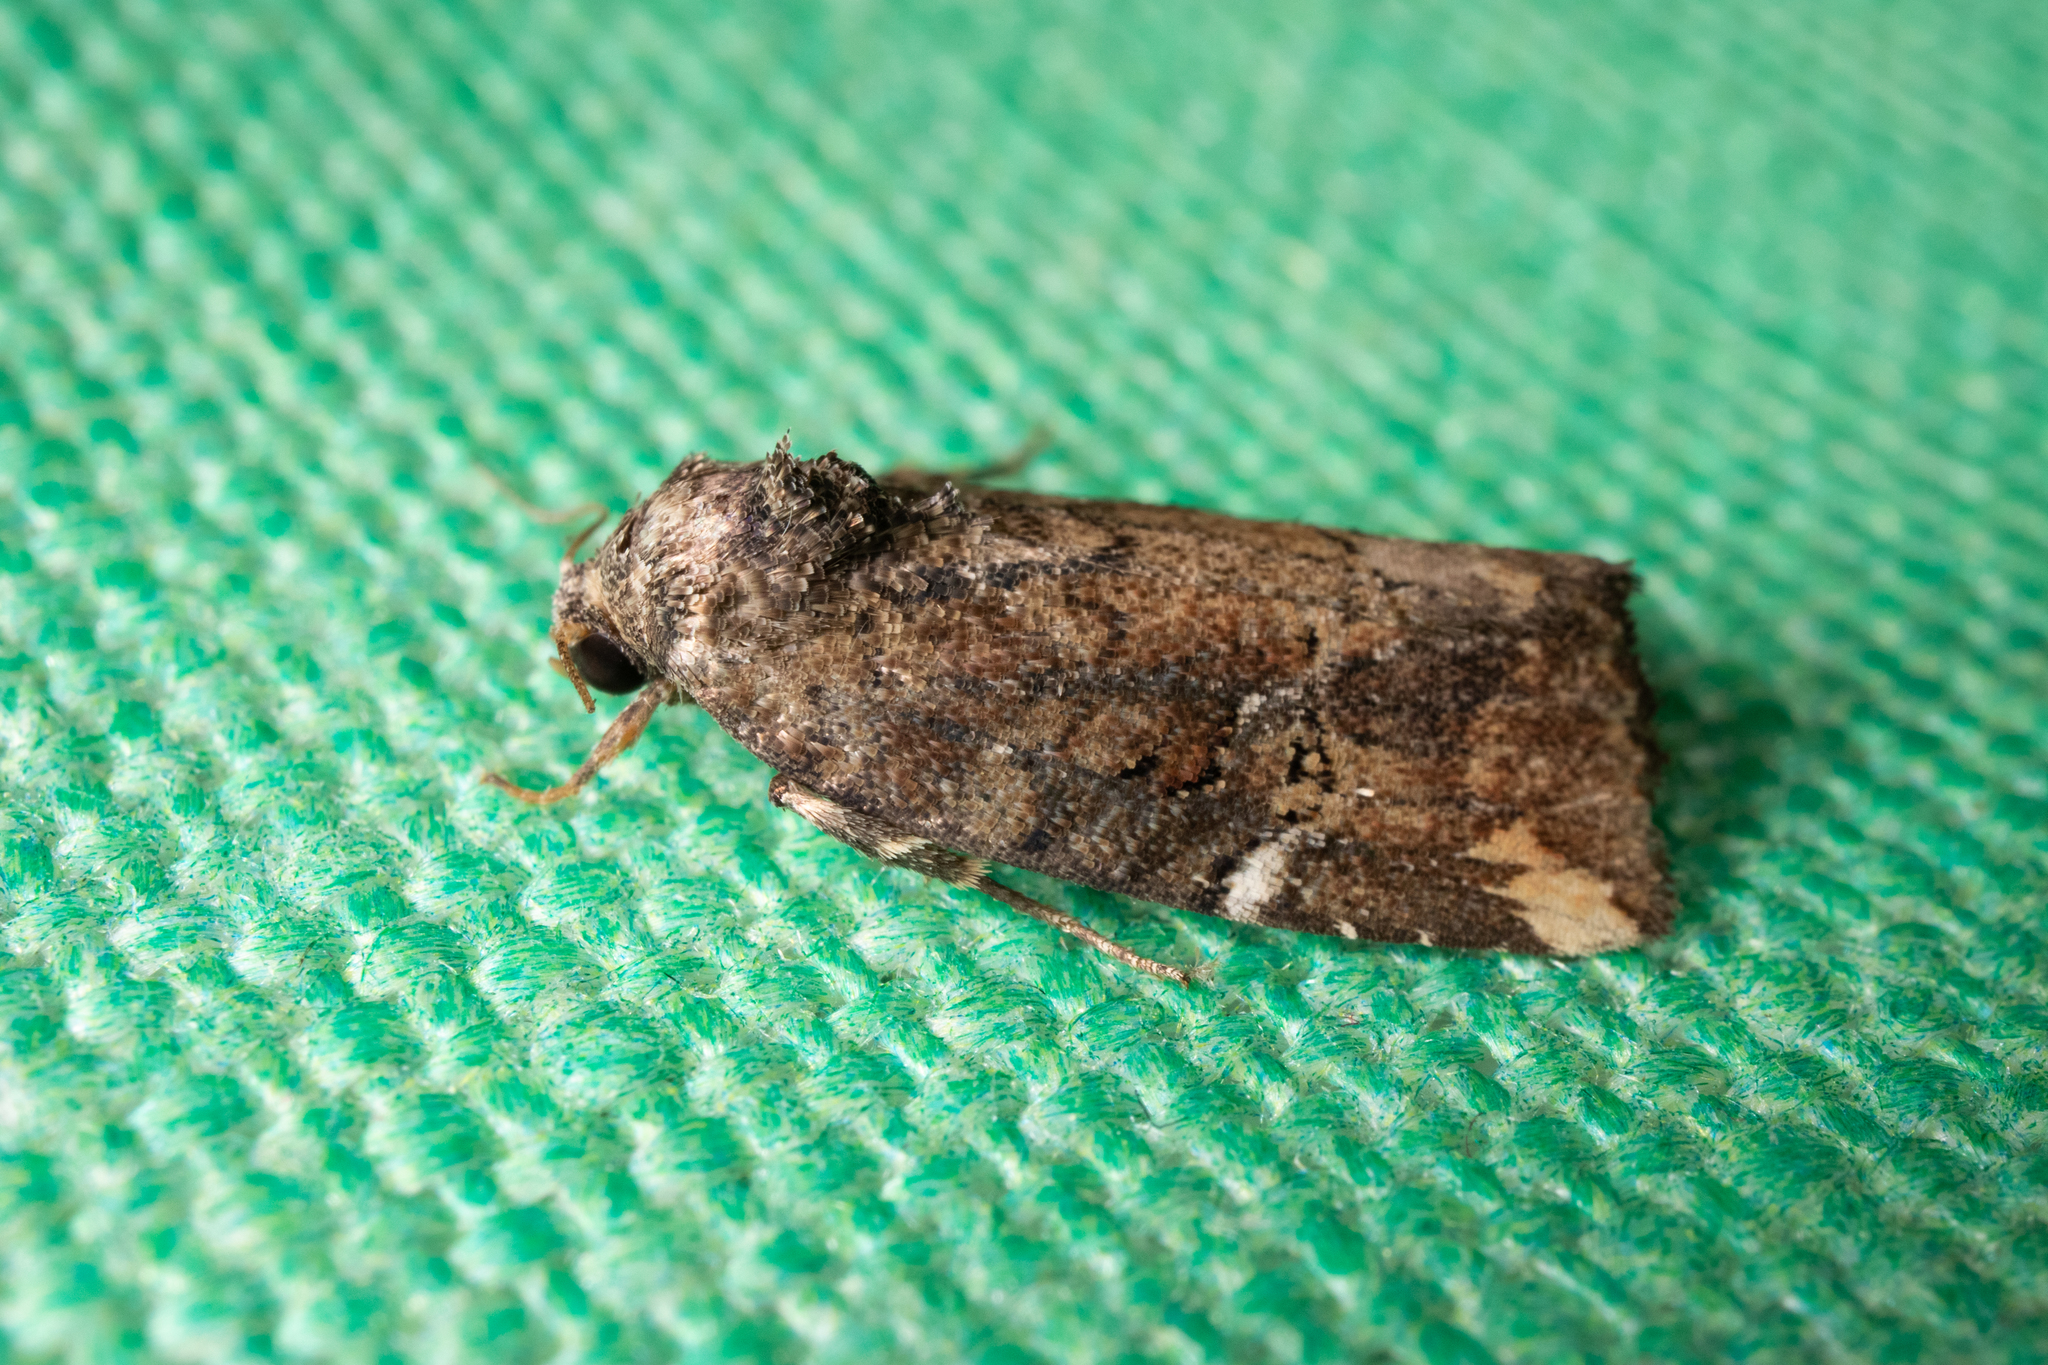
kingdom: Animalia
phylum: Arthropoda
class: Insecta
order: Lepidoptera
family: Noctuidae
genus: Elaphria
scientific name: Elaphria versicolor
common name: Fir harlequin
